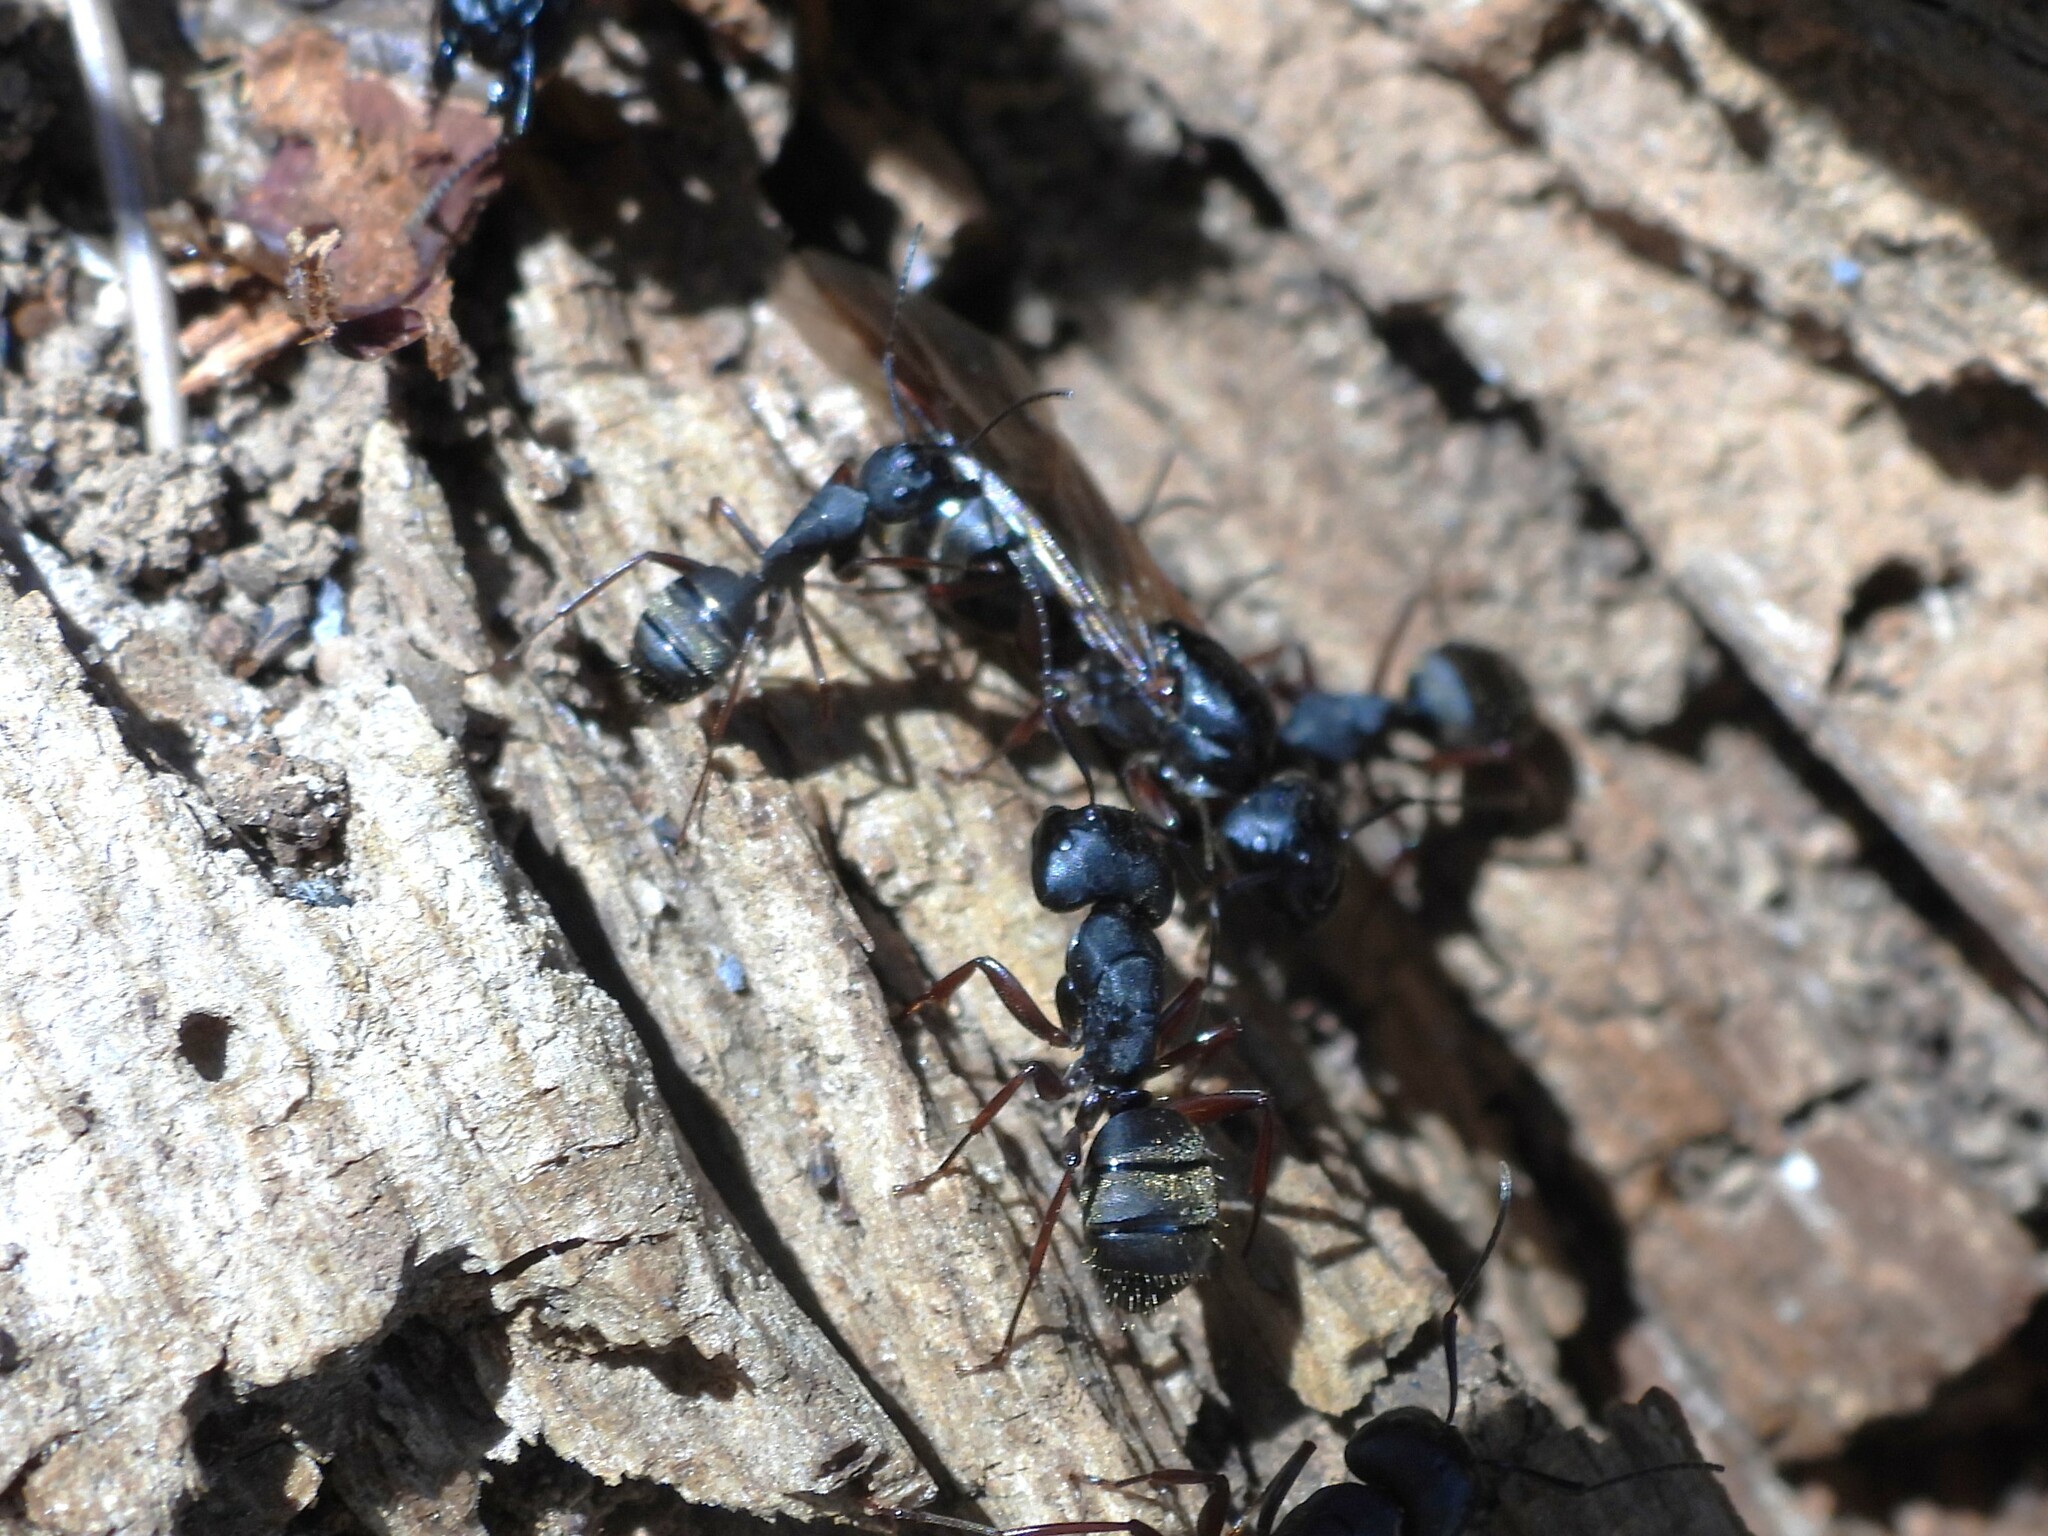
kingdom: Animalia
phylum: Arthropoda
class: Insecta
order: Hymenoptera
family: Formicidae
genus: Camponotus
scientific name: Camponotus modoc
